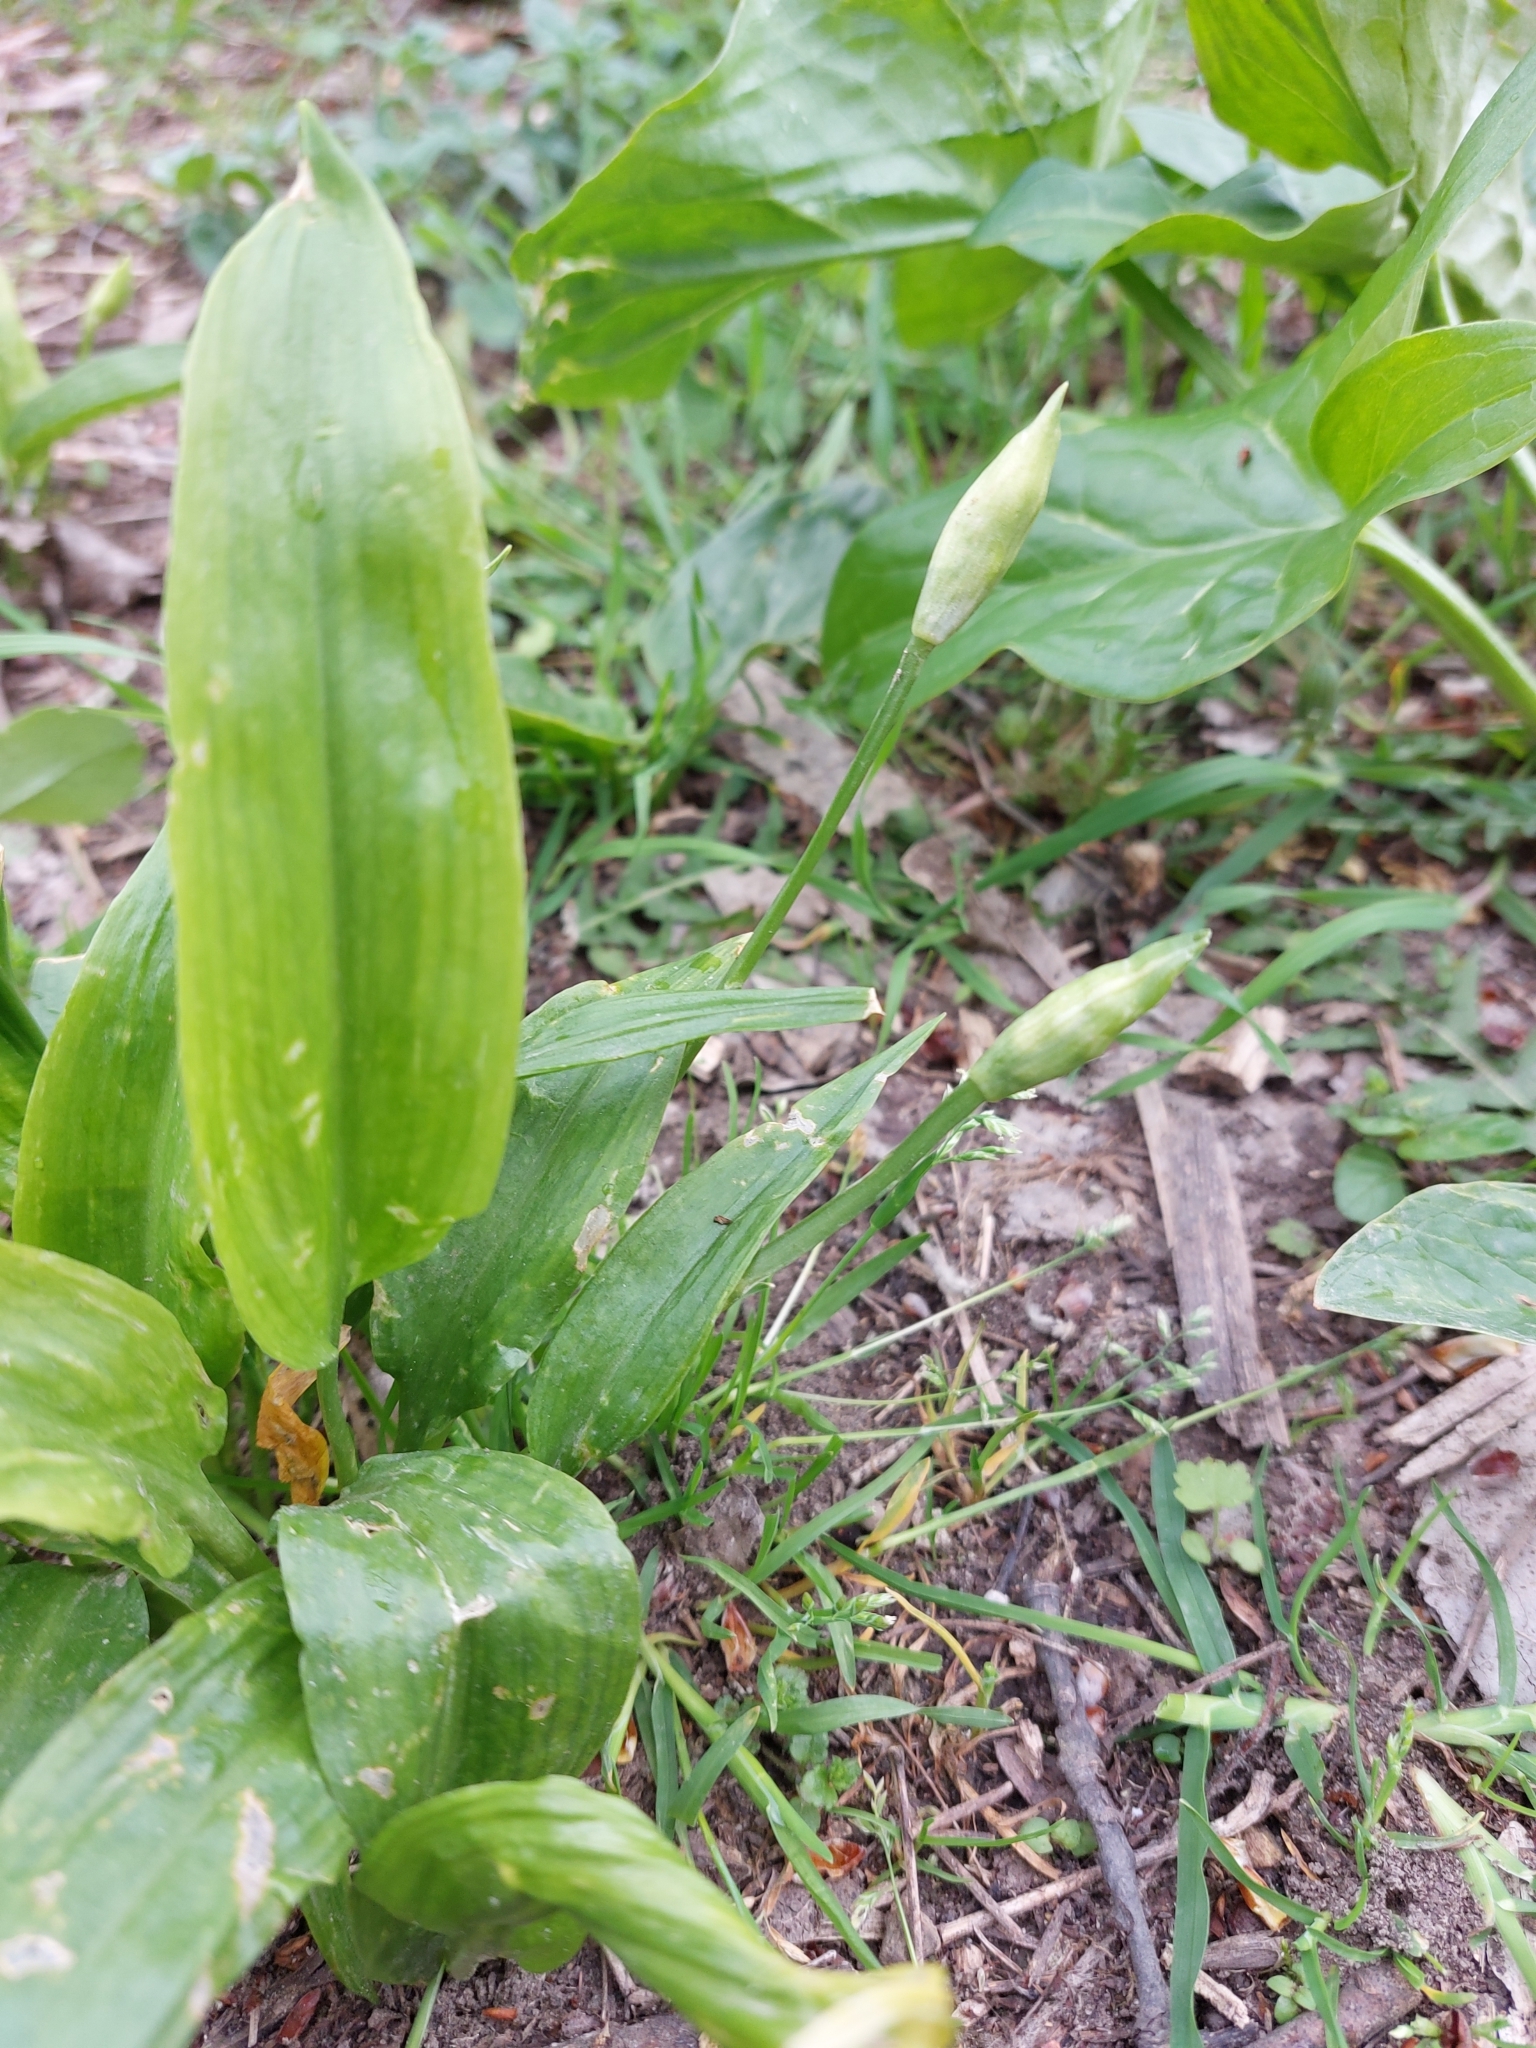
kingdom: Plantae
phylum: Tracheophyta
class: Liliopsida
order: Asparagales
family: Amaryllidaceae
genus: Allium
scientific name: Allium ursinum
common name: Ramsons
